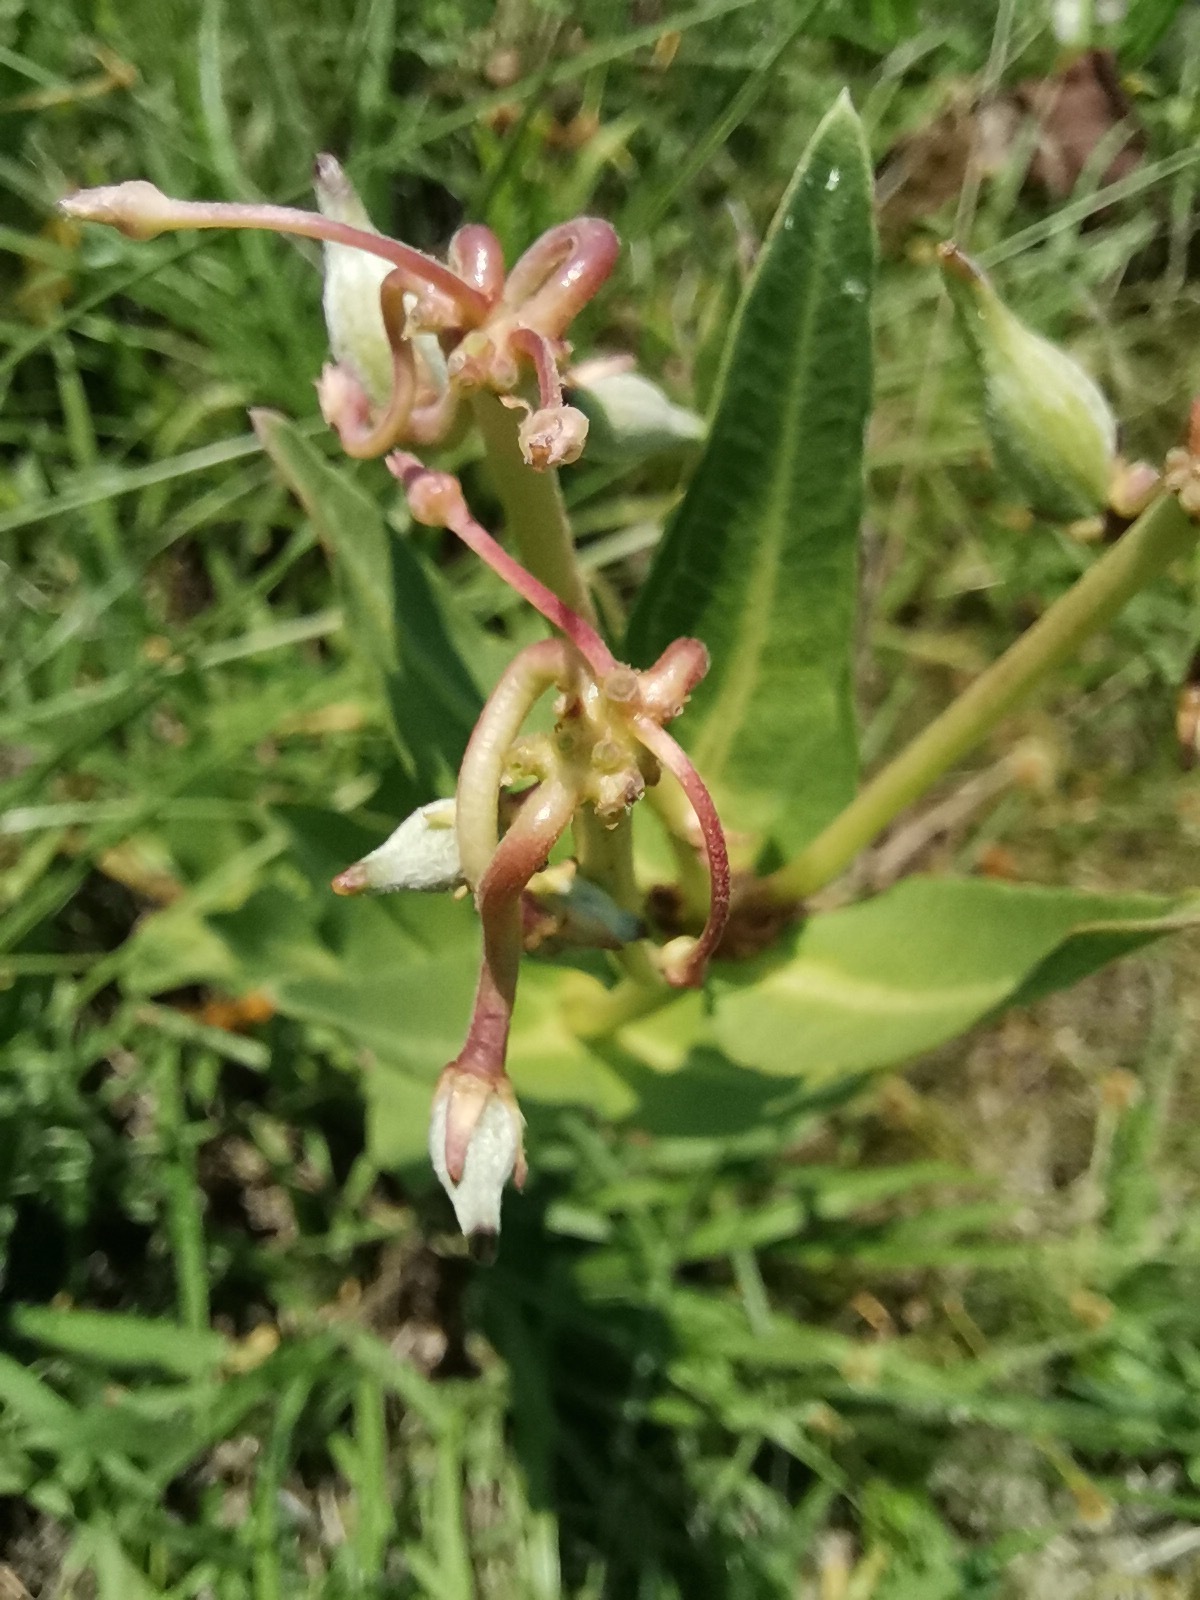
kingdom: Plantae
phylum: Tracheophyta
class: Magnoliopsida
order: Gentianales
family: Apocynaceae
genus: Asclepias
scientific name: Asclepias pratensis
